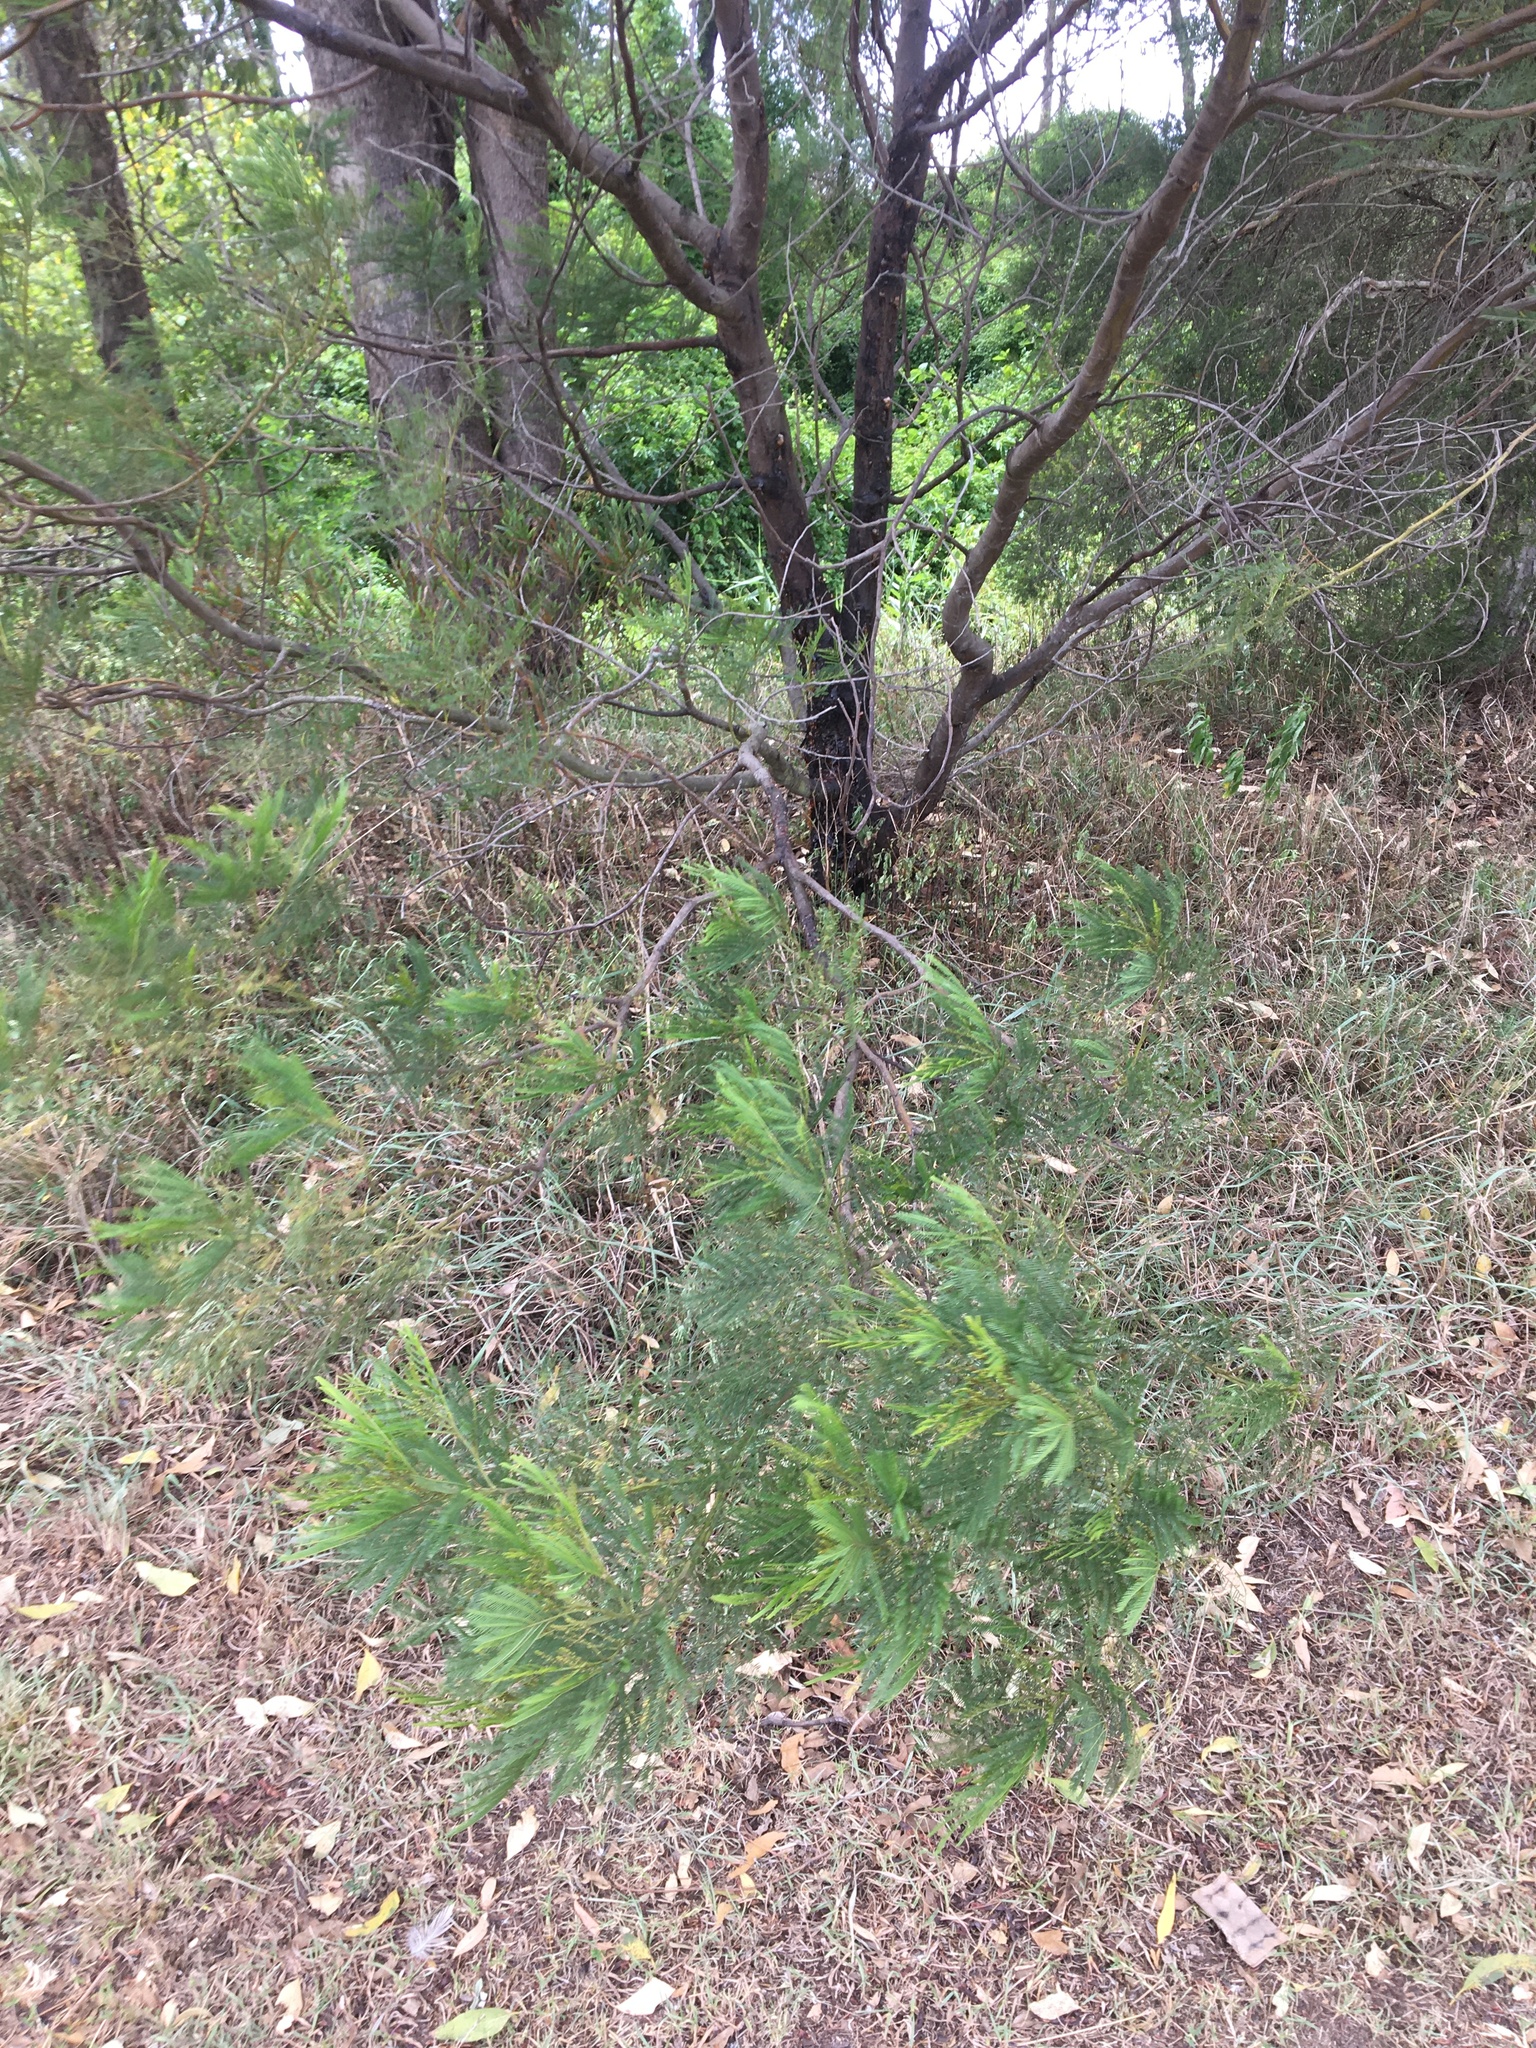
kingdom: Plantae
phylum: Tracheophyta
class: Magnoliopsida
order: Fabales
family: Fabaceae
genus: Acacia
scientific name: Acacia decurrens
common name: Green wattle
